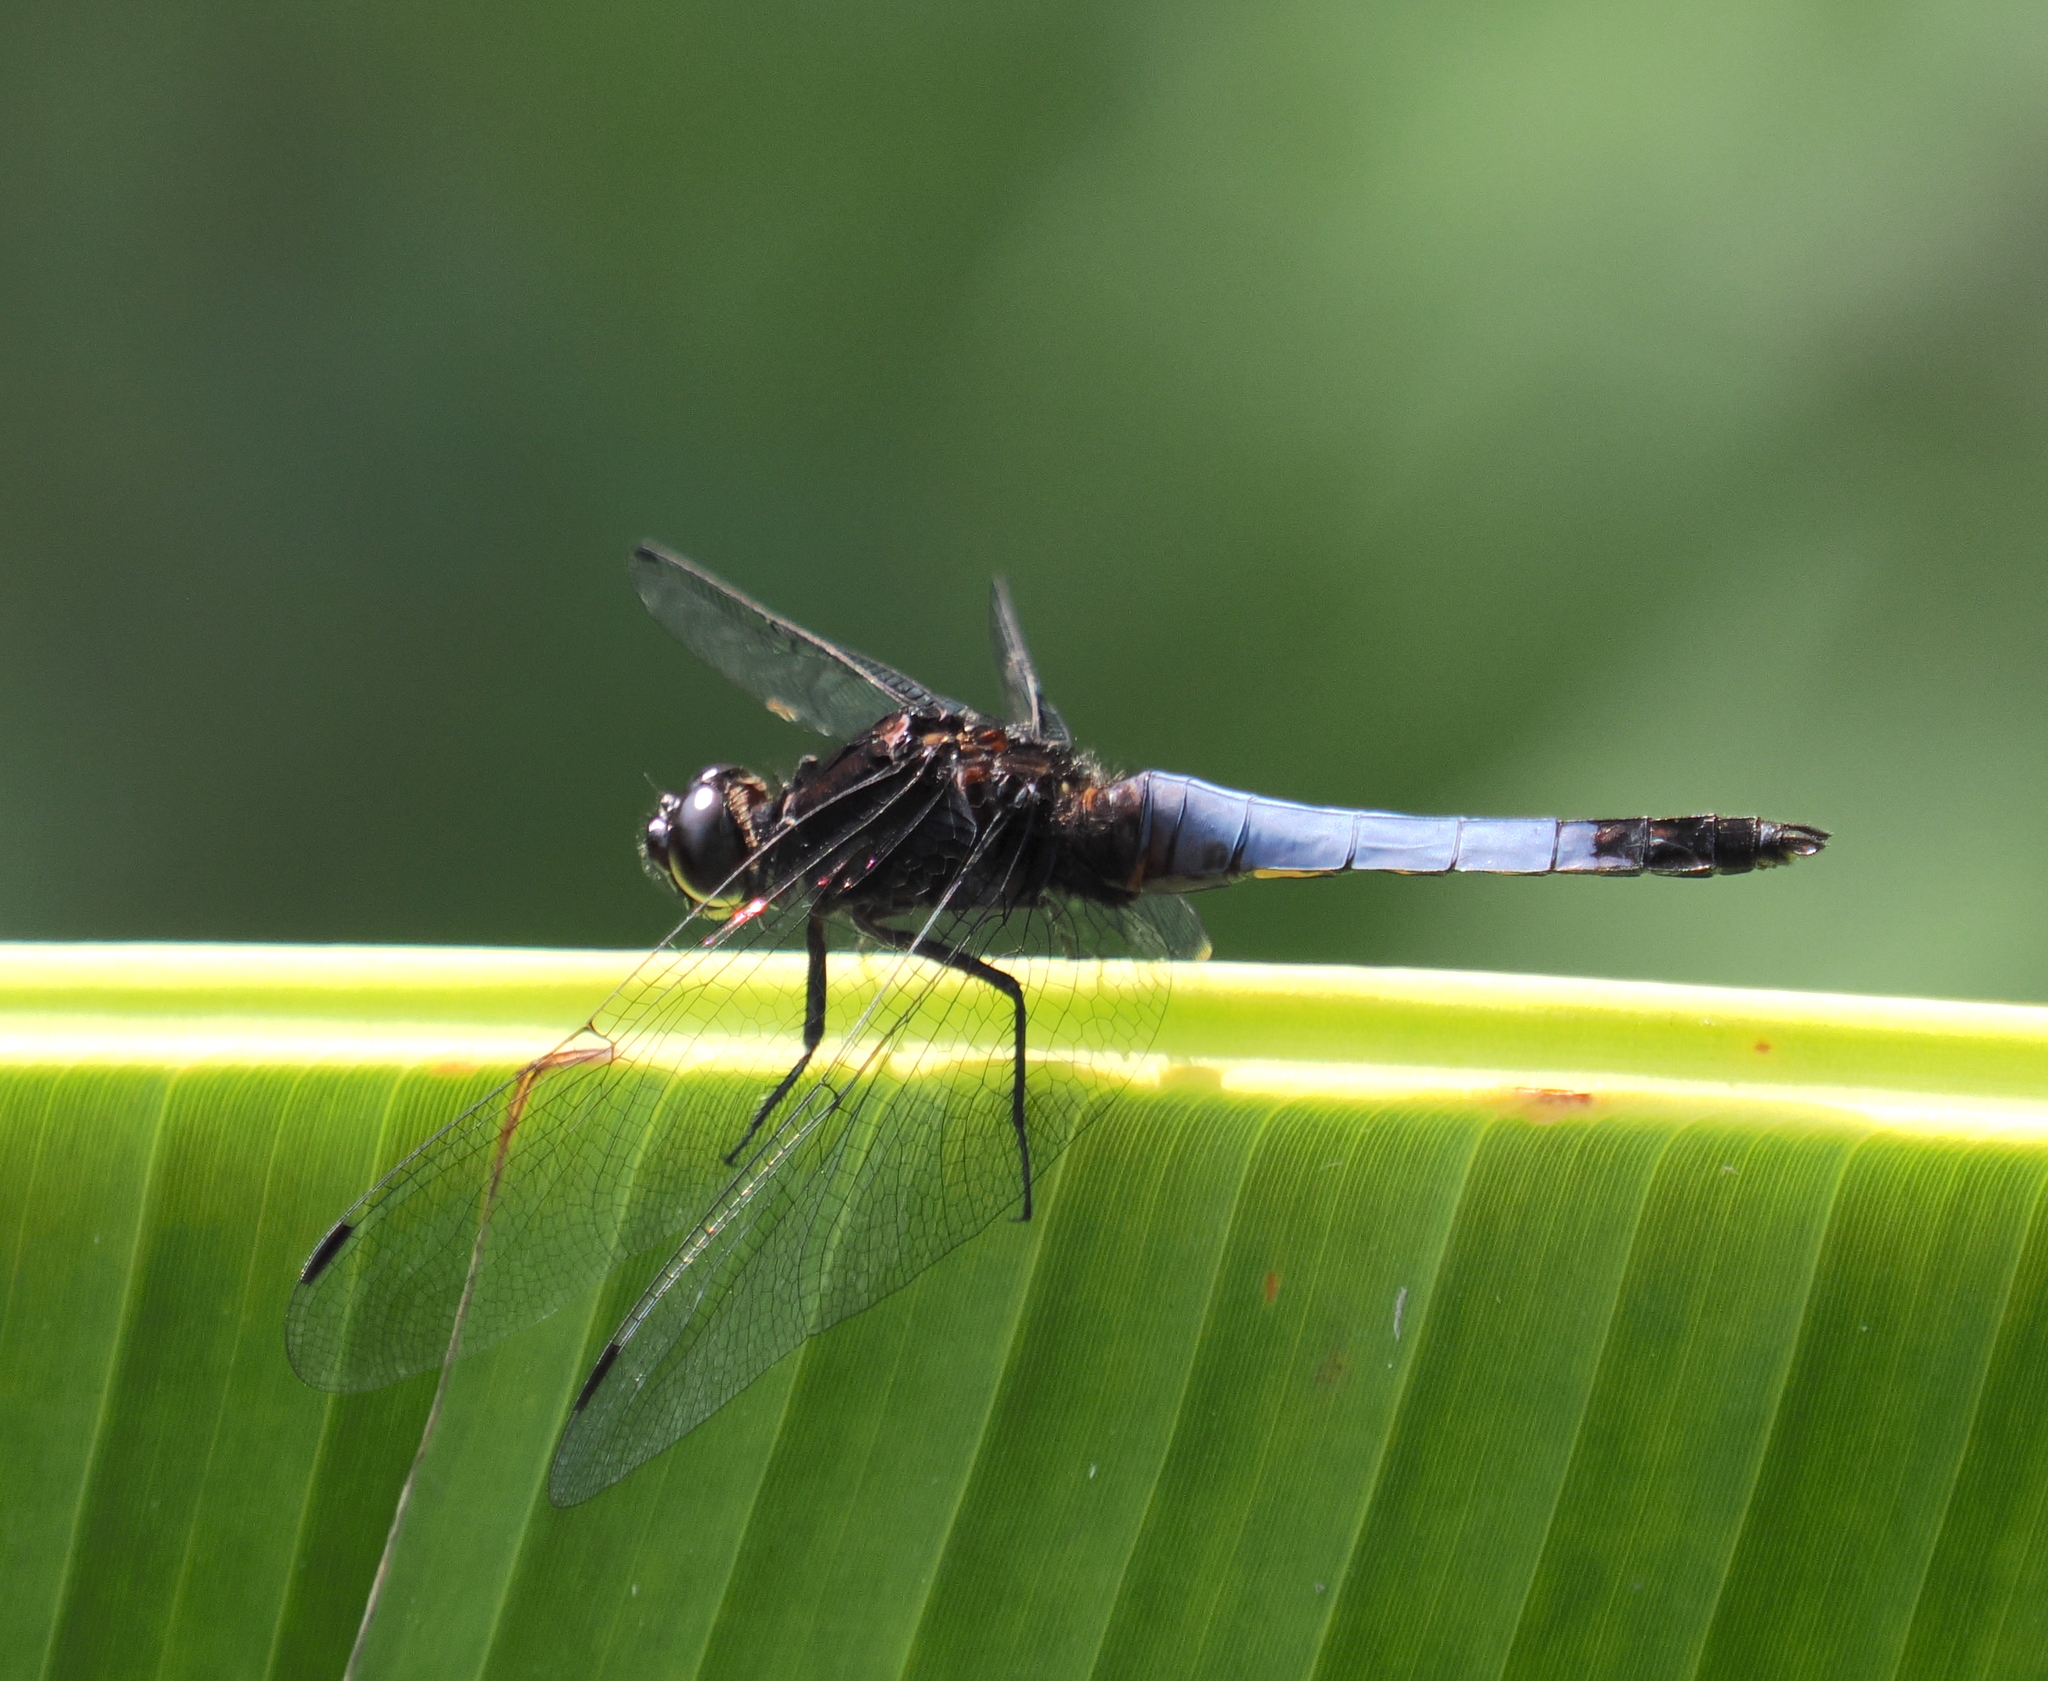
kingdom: Animalia
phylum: Arthropoda
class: Insecta
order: Odonata
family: Libellulidae
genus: Orthetrum
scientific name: Orthetrum triangulare
